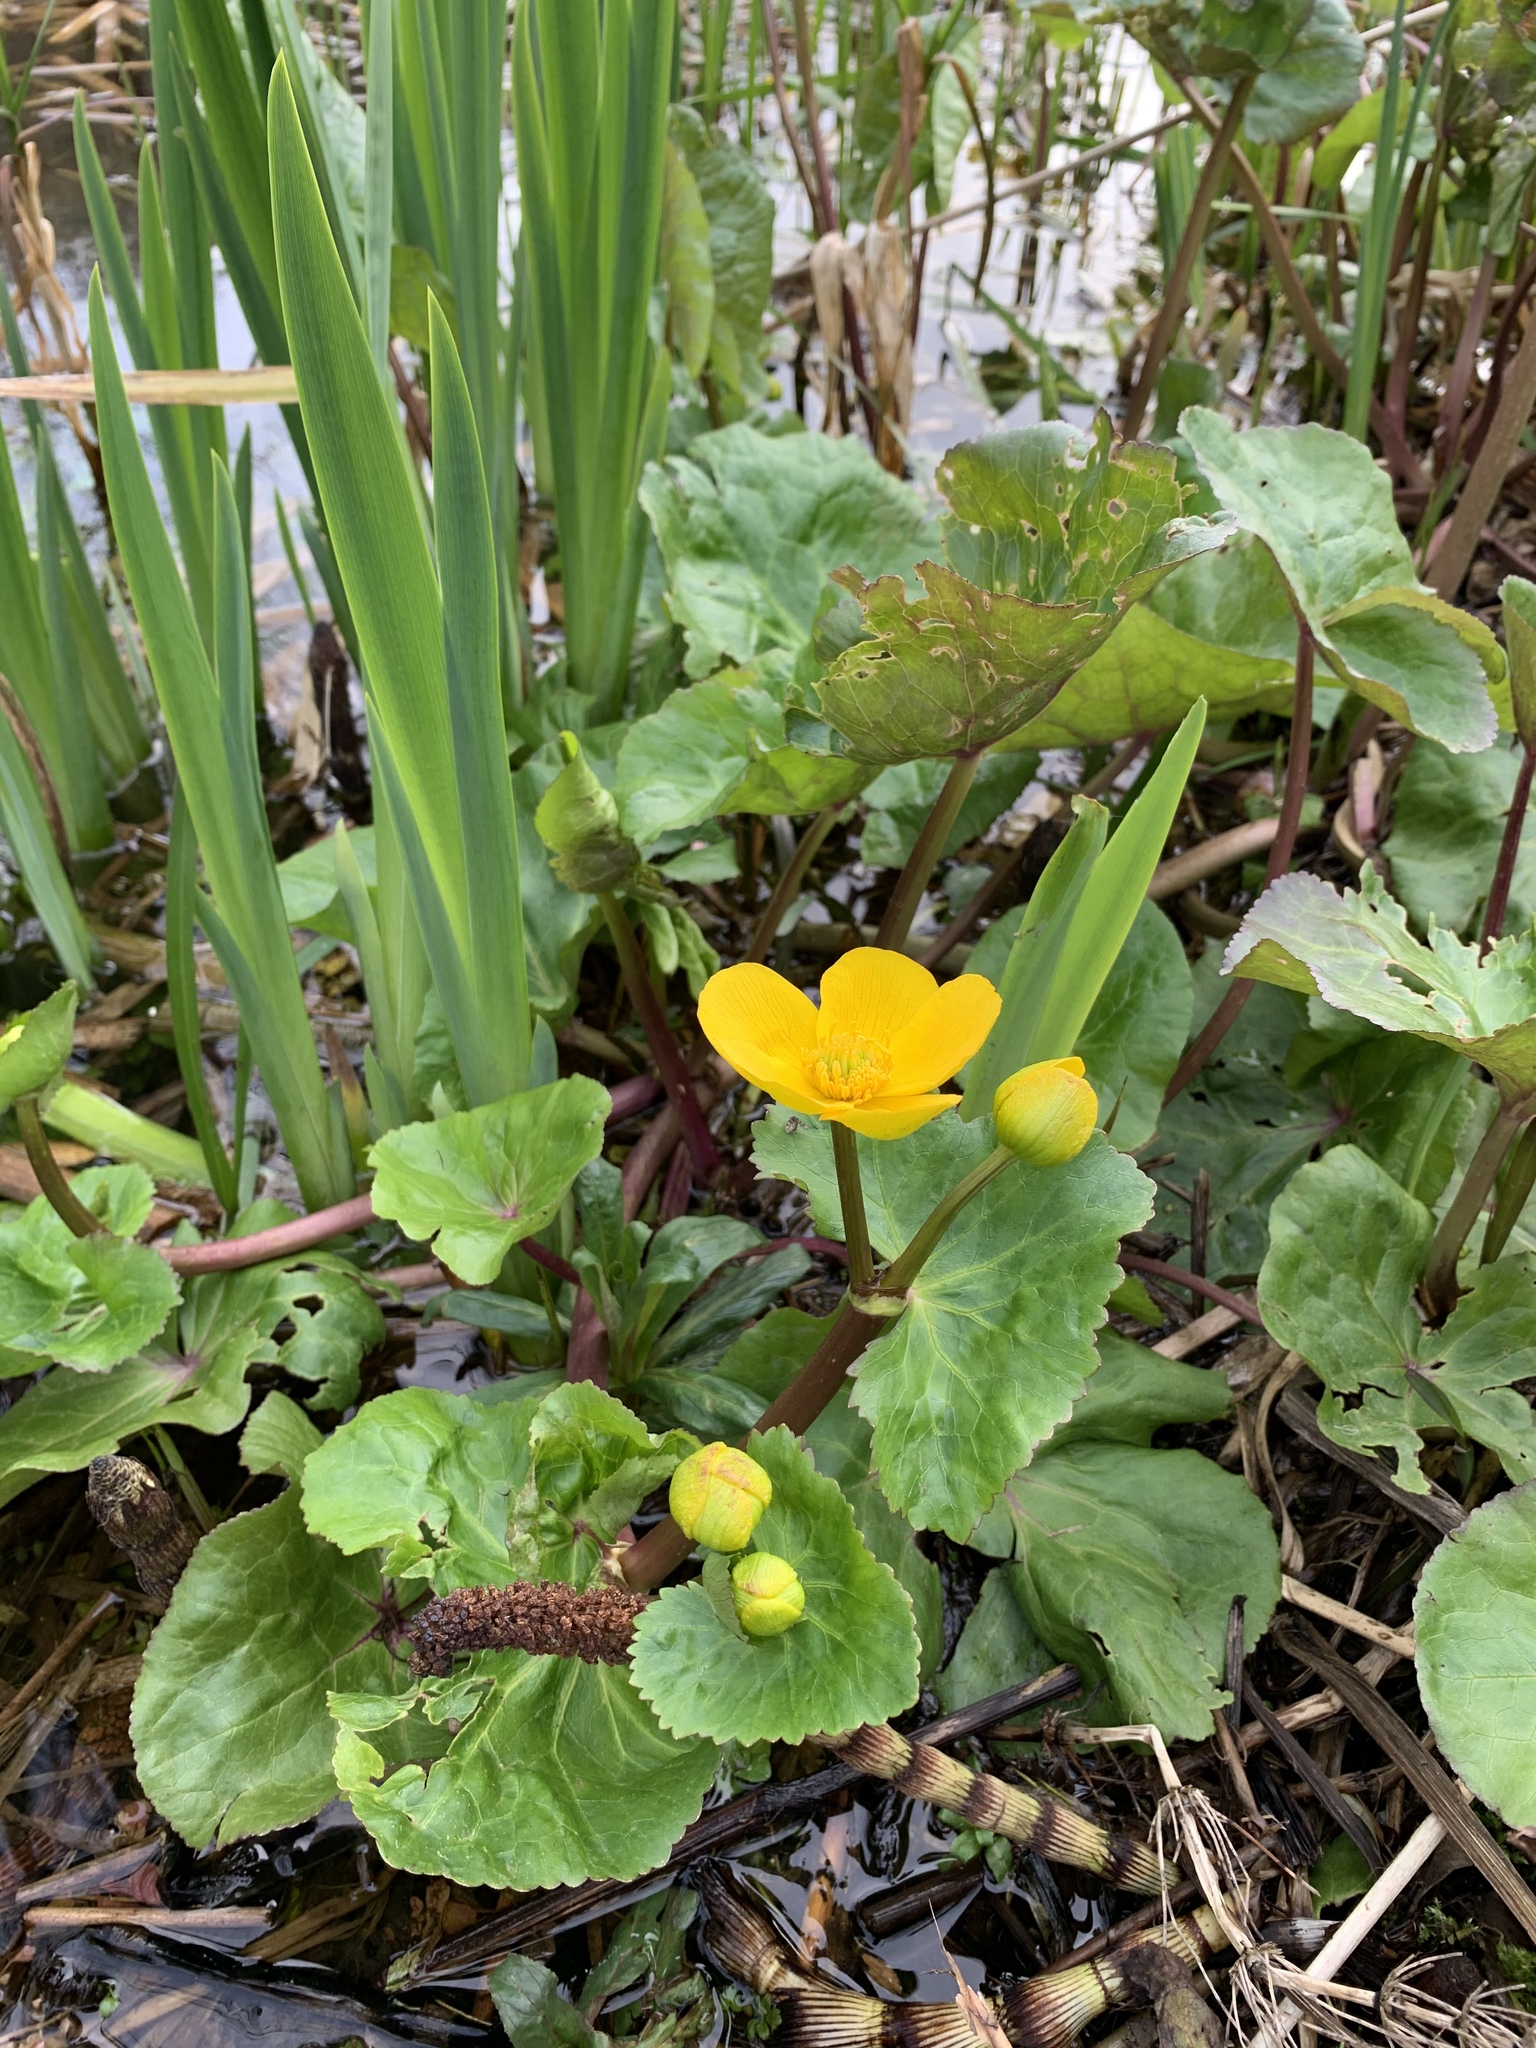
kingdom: Plantae
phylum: Tracheophyta
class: Magnoliopsida
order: Ranunculales
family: Ranunculaceae
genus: Caltha
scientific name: Caltha palustris
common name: Marsh marigold
